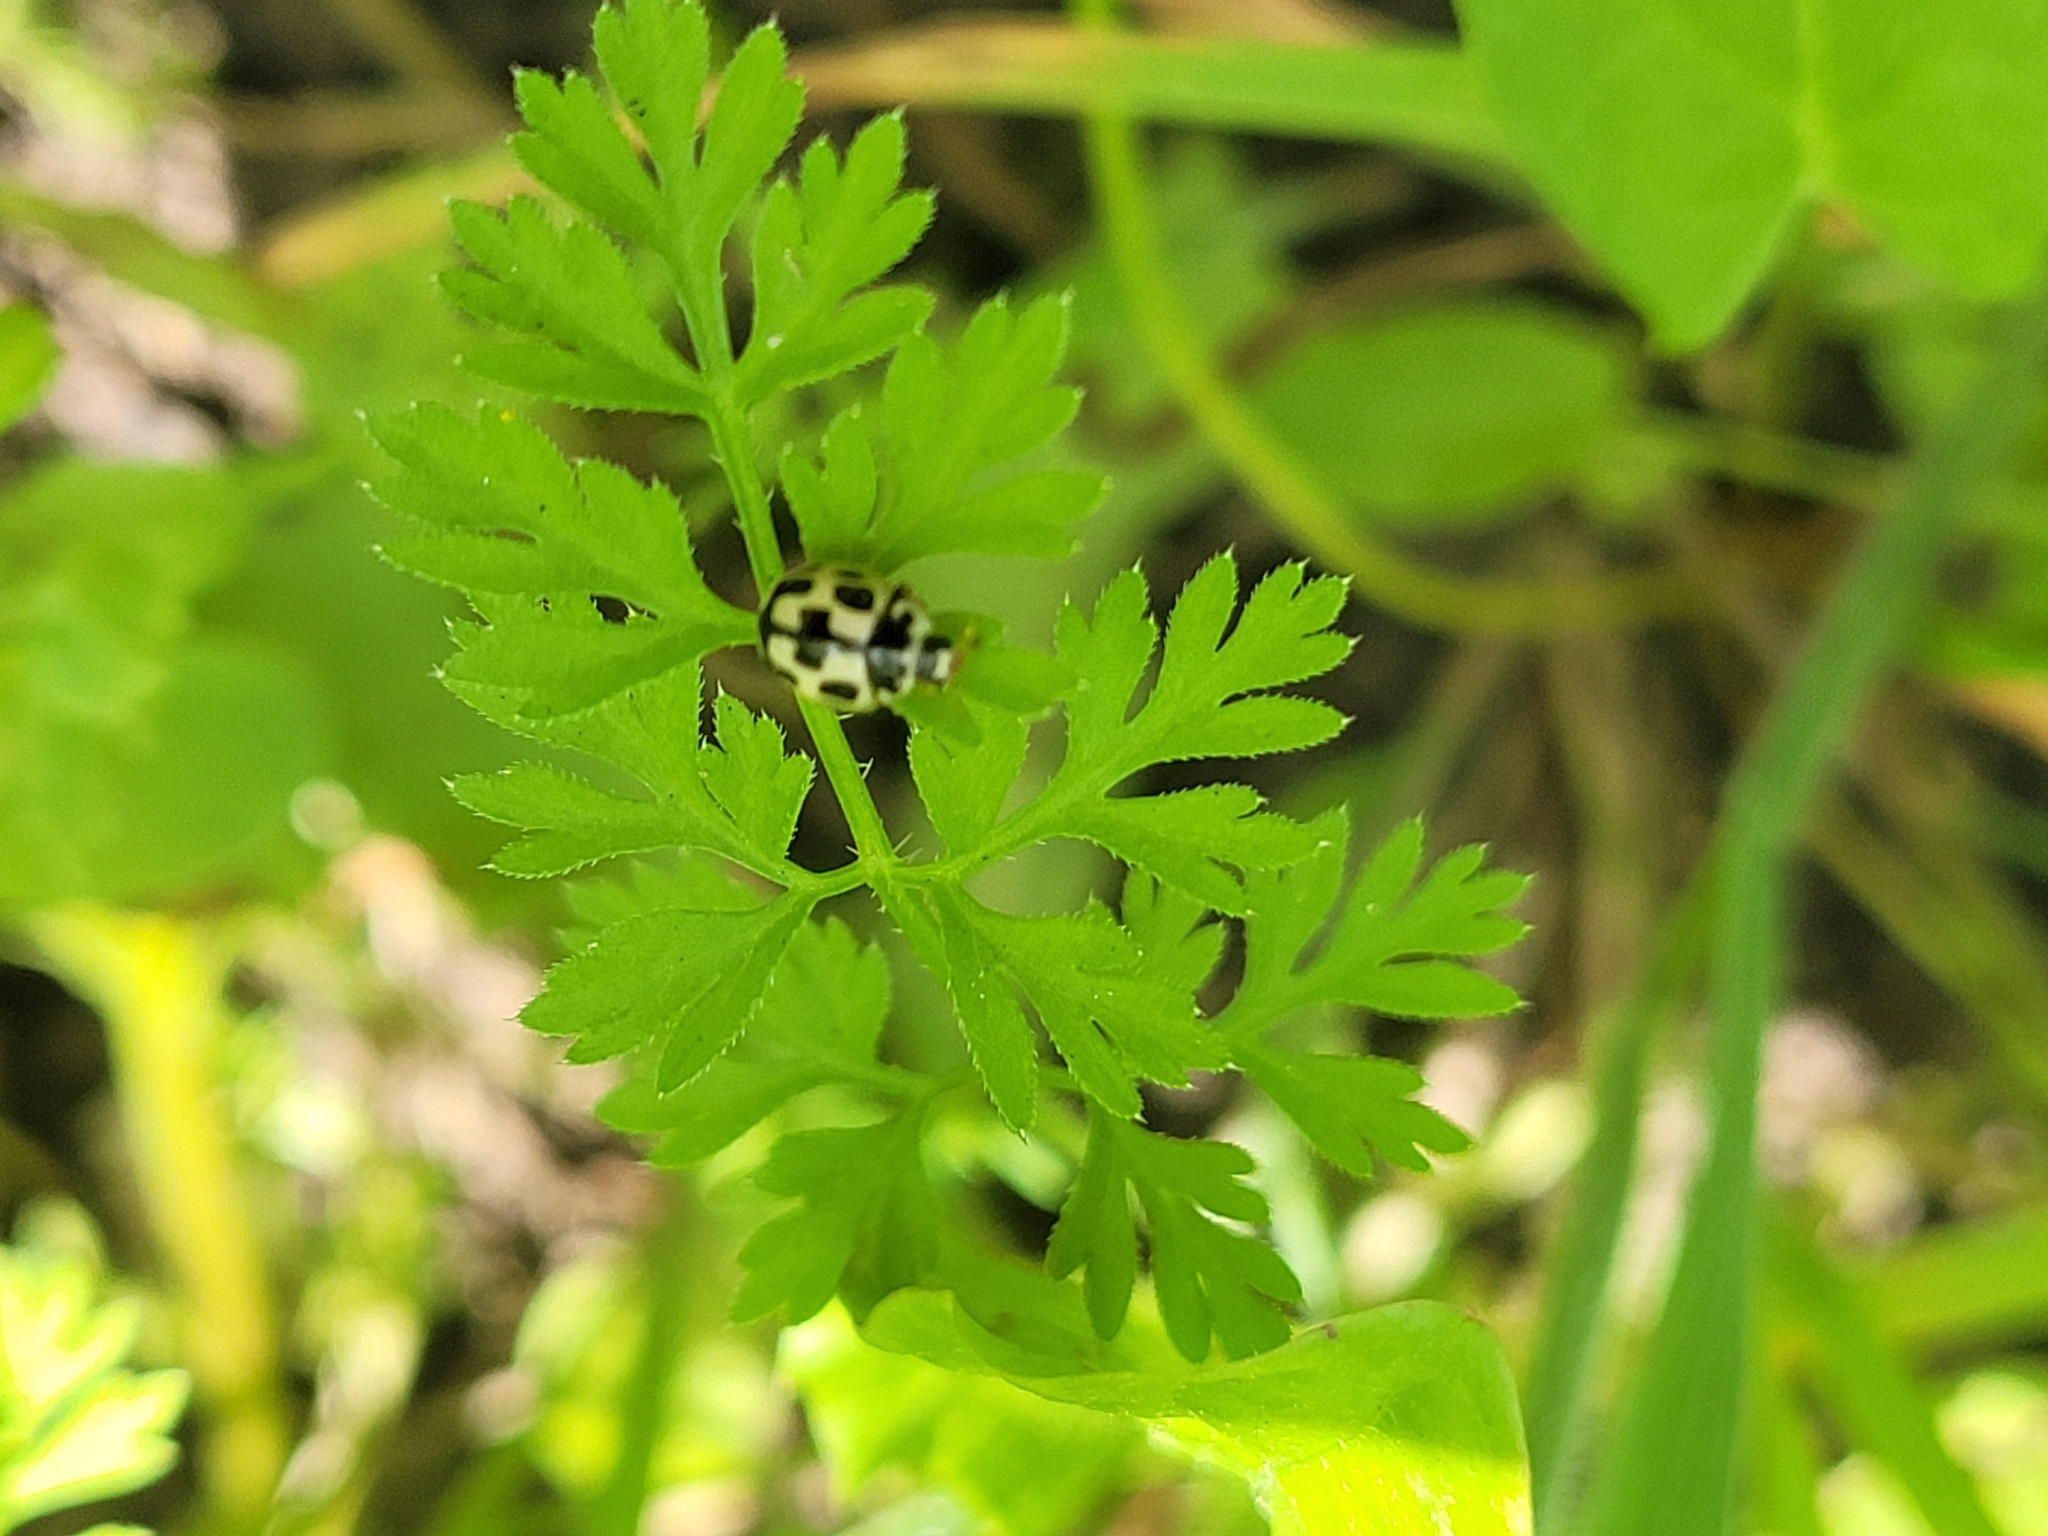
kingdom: Animalia
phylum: Arthropoda
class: Insecta
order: Coleoptera
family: Coccinellidae
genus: Propylaea
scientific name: Propylaea quatuordecimpunctata
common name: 14-spotted ladybird beetle
